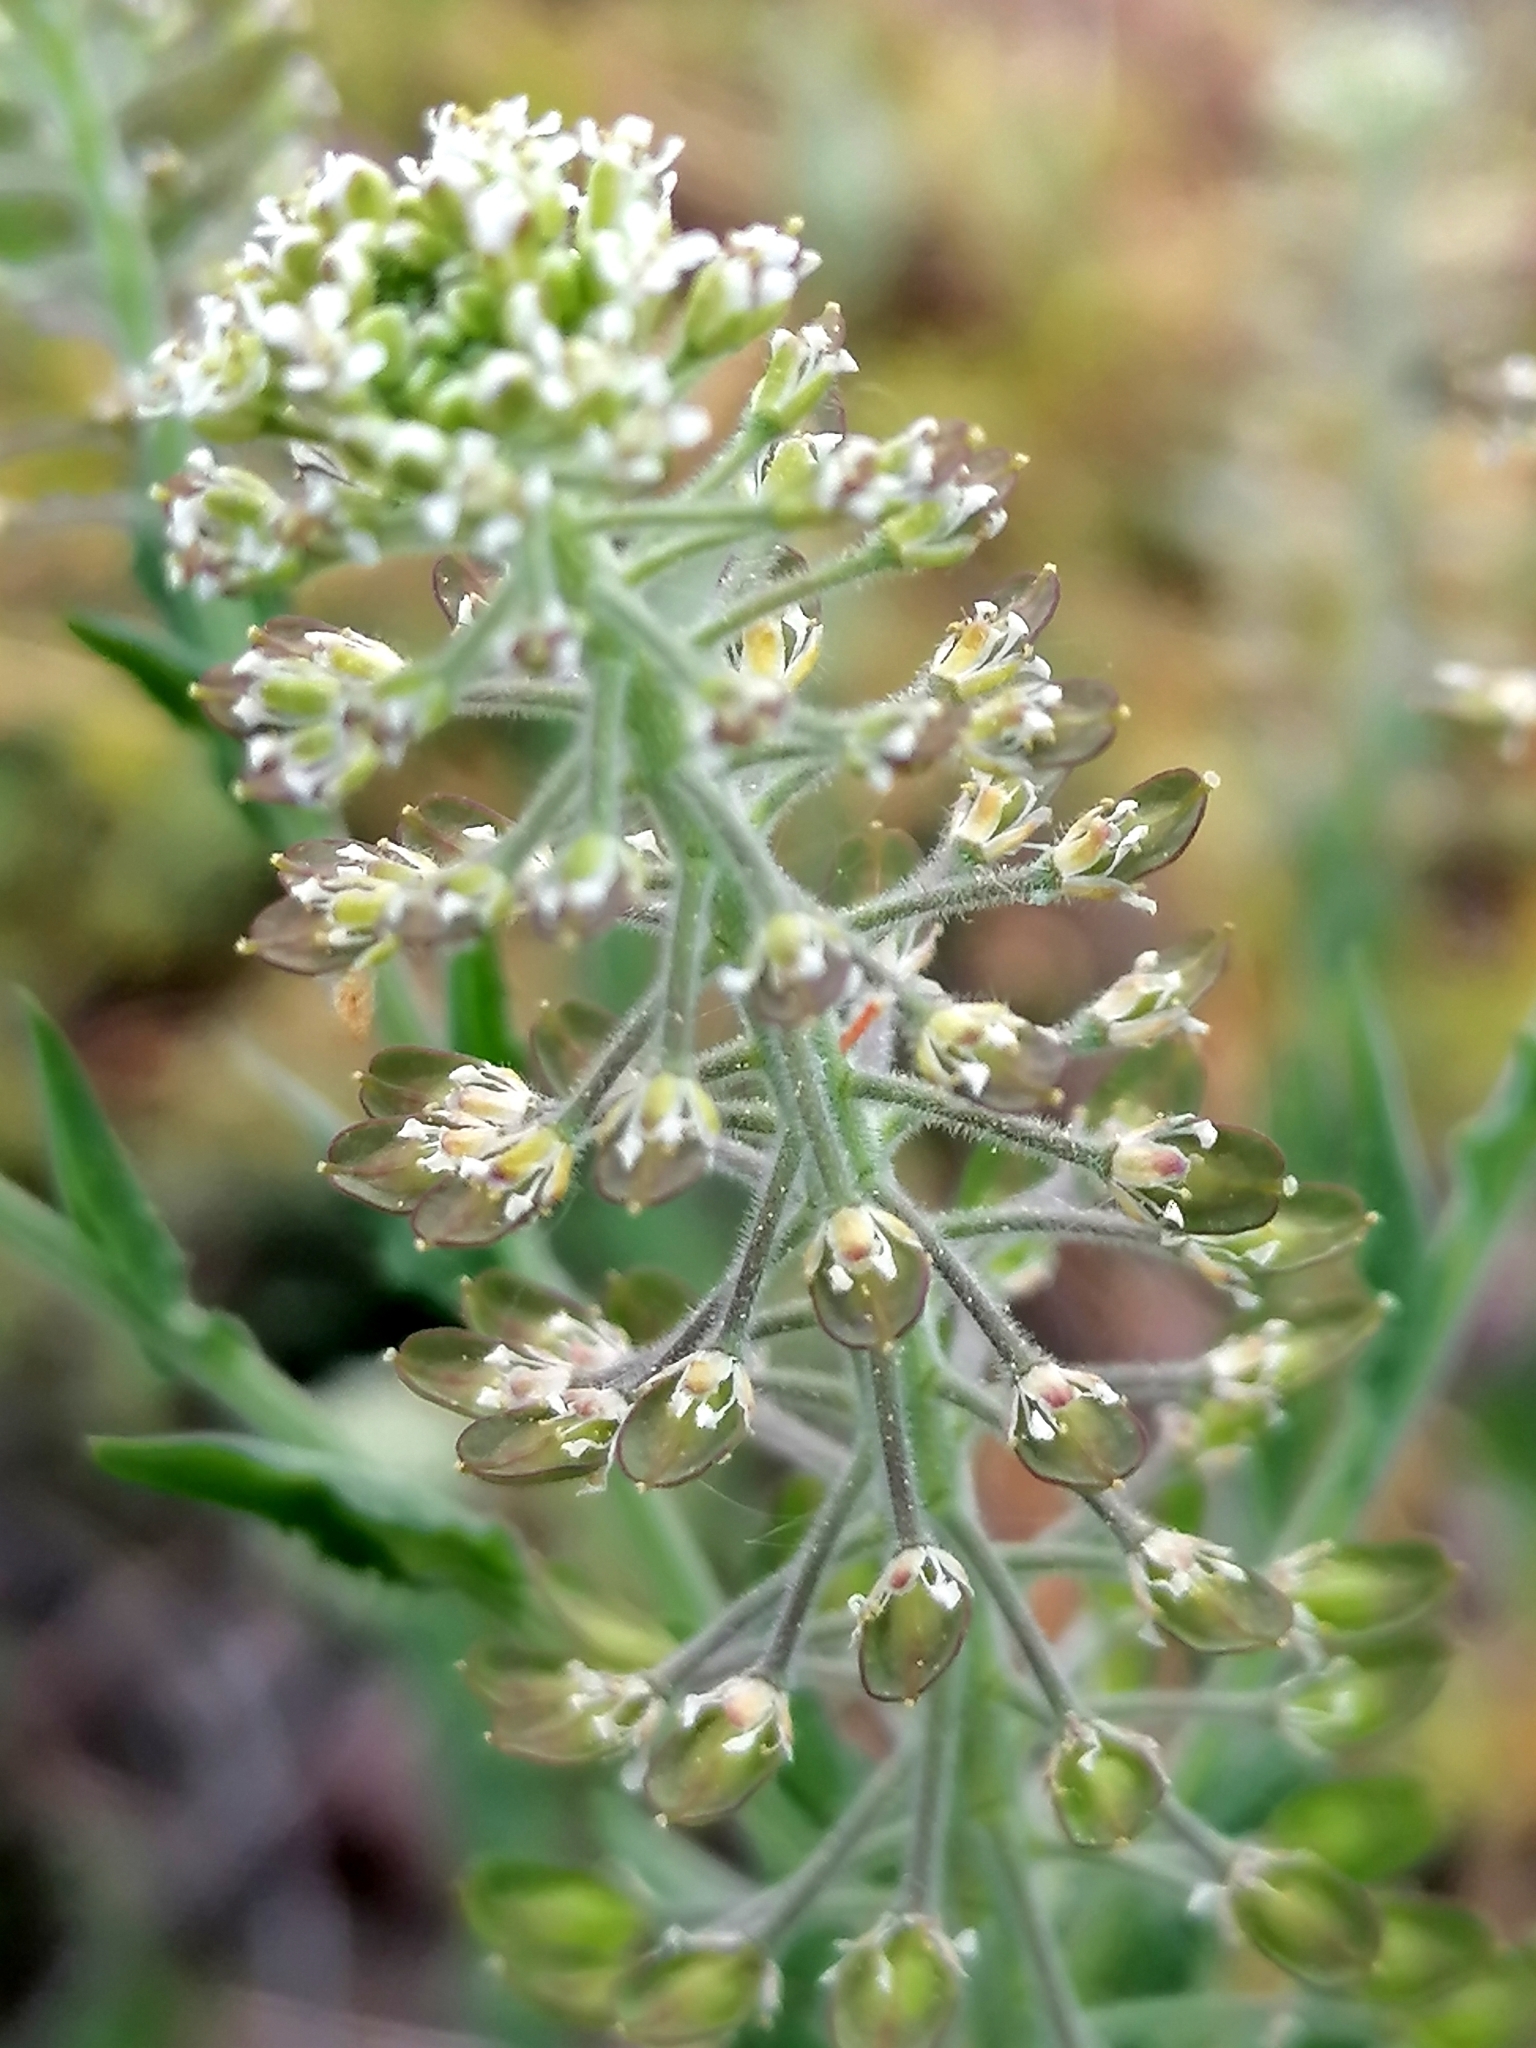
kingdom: Plantae
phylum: Tracheophyta
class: Magnoliopsida
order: Brassicales
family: Brassicaceae
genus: Lepidium
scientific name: Lepidium campestre
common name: Field pepperwort
